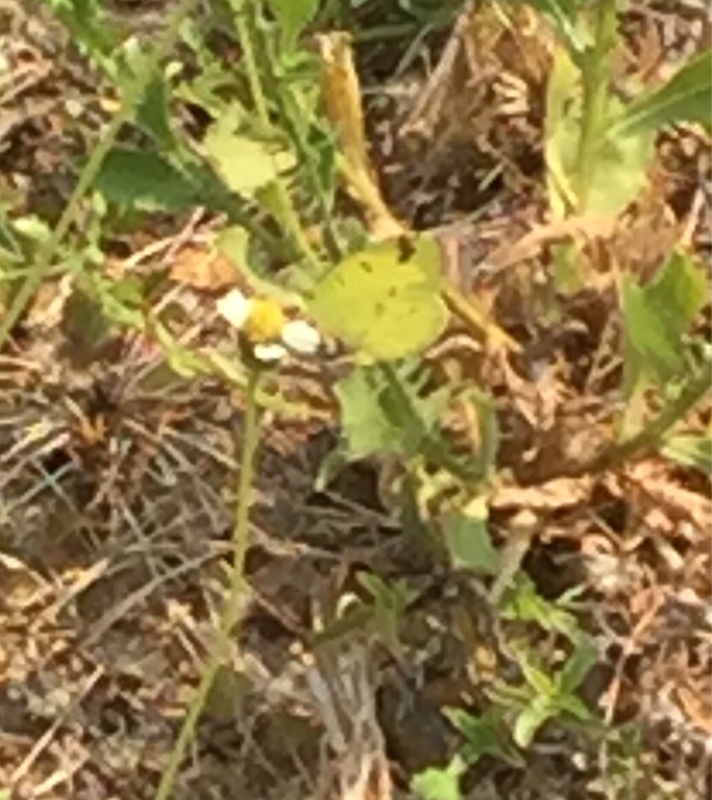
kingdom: Animalia
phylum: Arthropoda
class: Insecta
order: Lepidoptera
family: Pieridae
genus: Eurema
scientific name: Eurema hecabe
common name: Pale grass yellow
